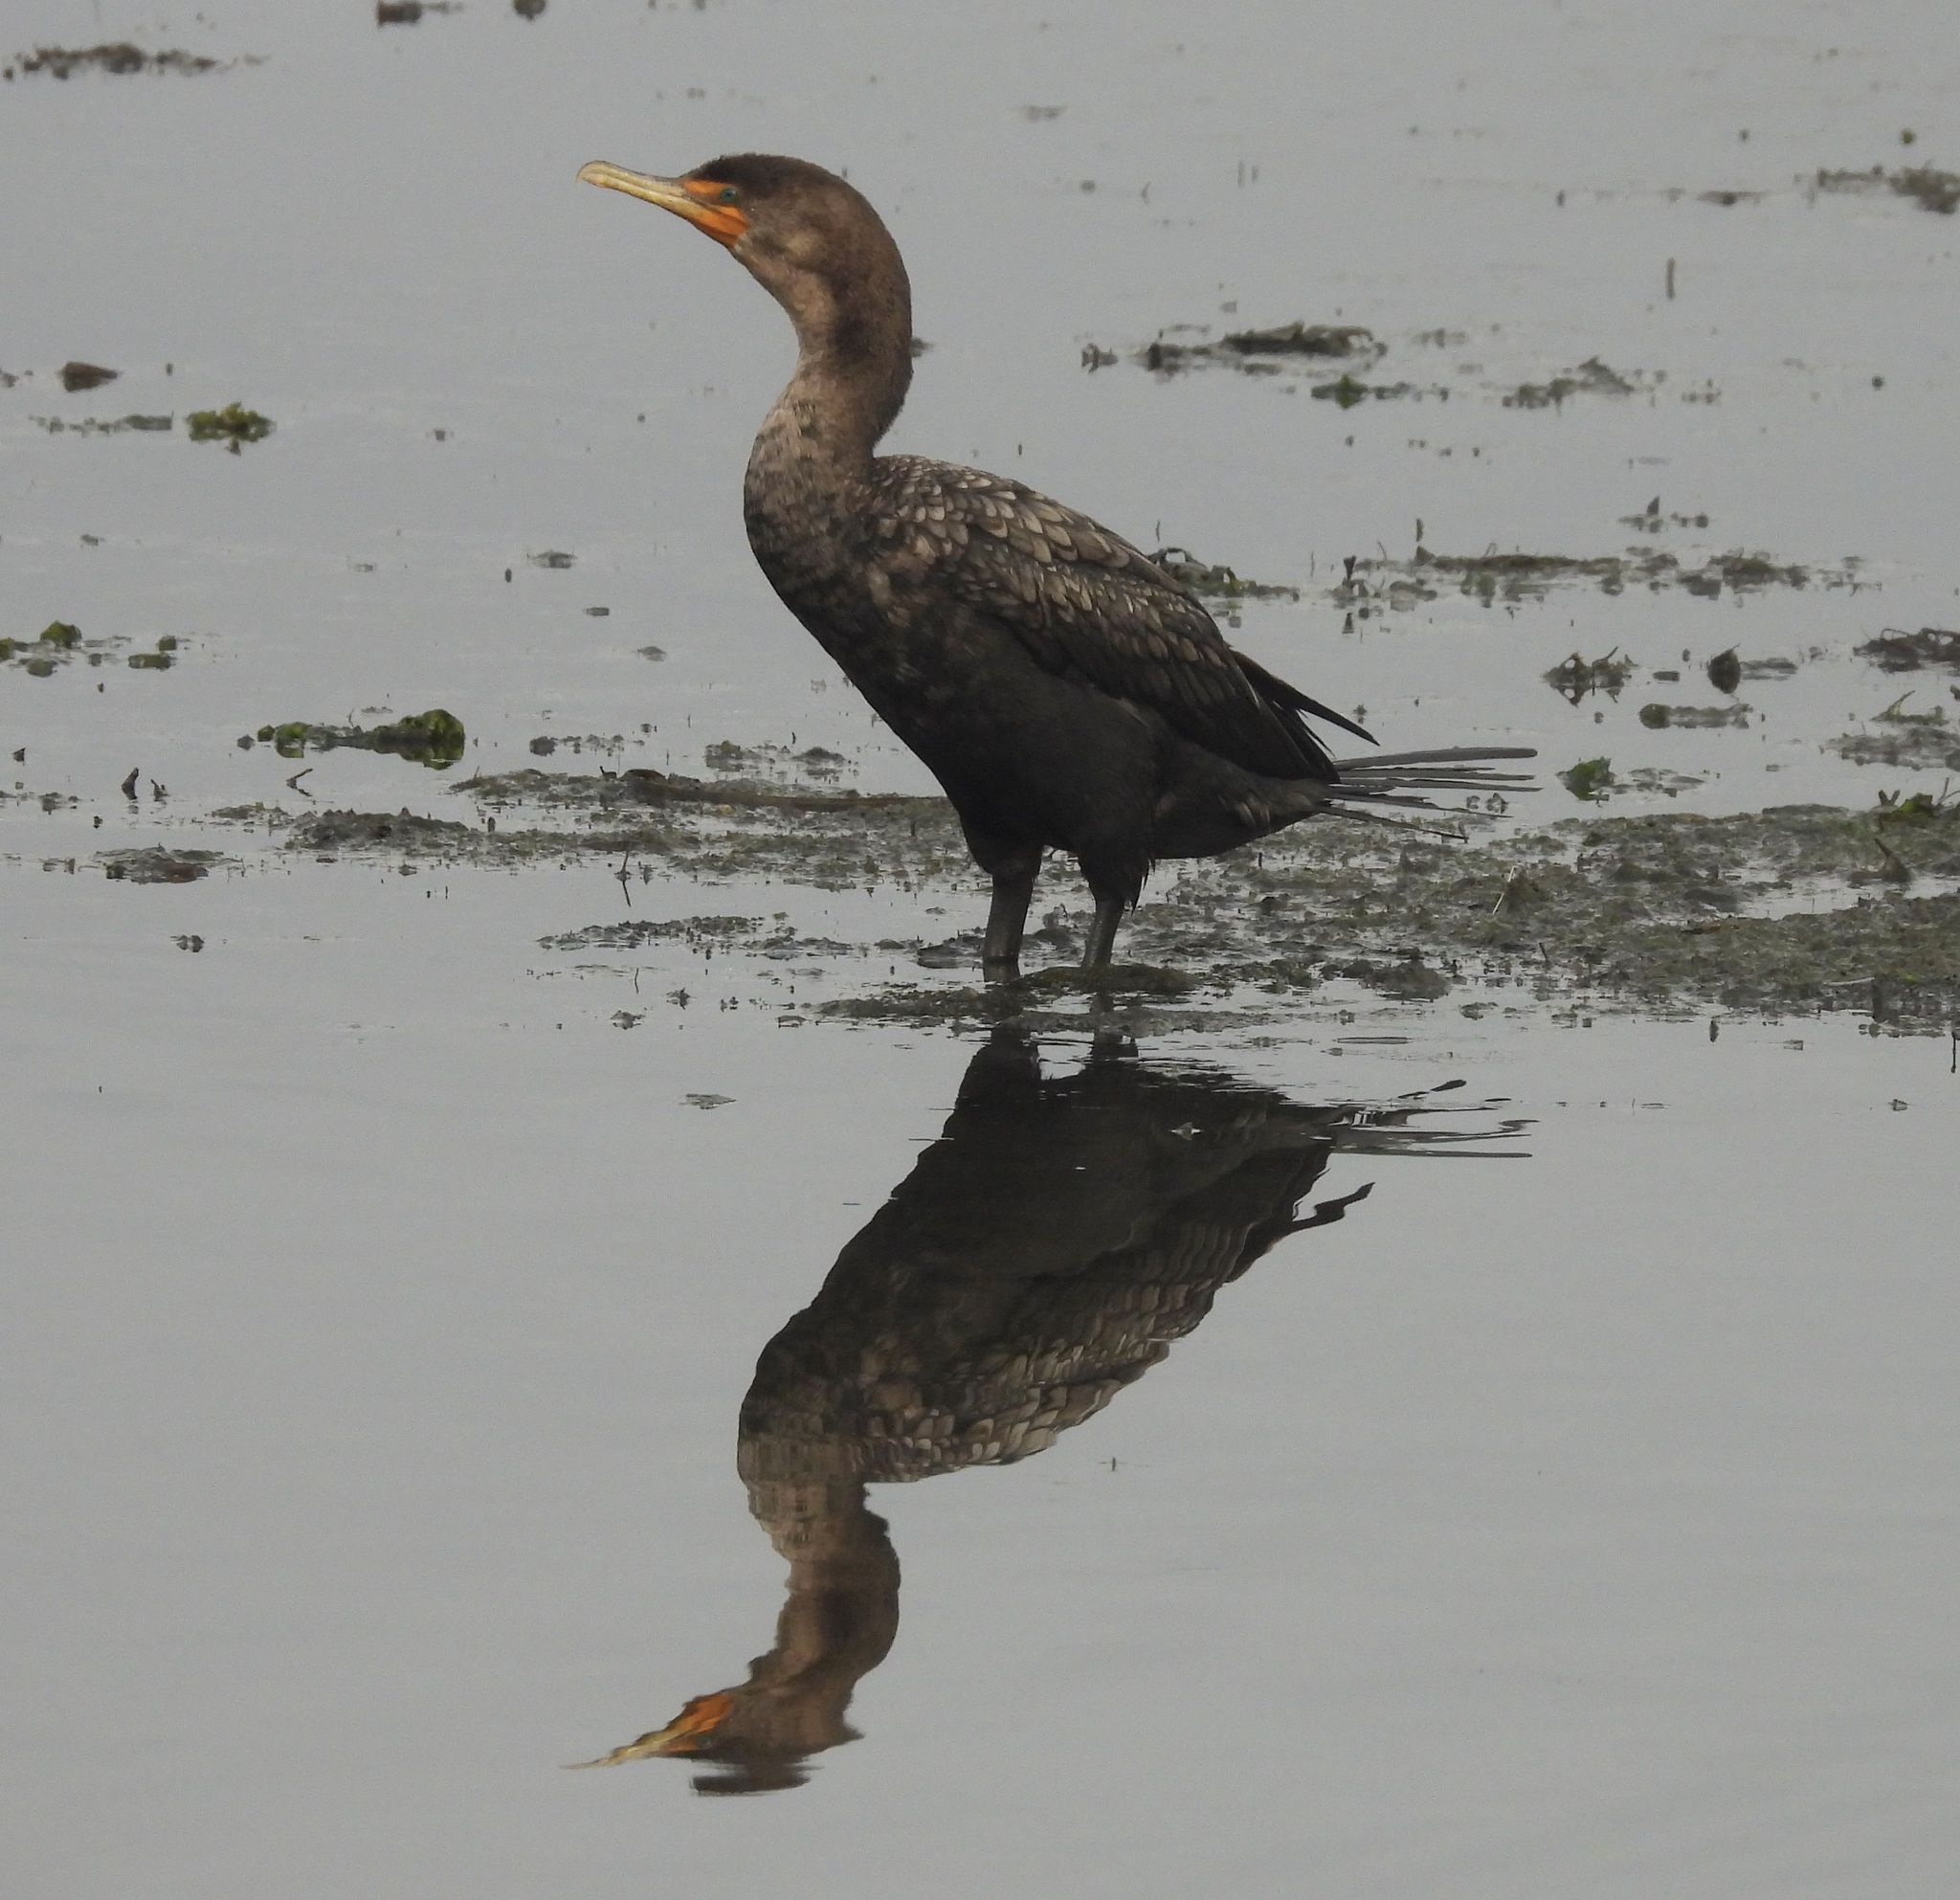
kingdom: Animalia
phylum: Chordata
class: Aves
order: Suliformes
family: Phalacrocoracidae
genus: Phalacrocorax
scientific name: Phalacrocorax auritus
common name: Double-crested cormorant
